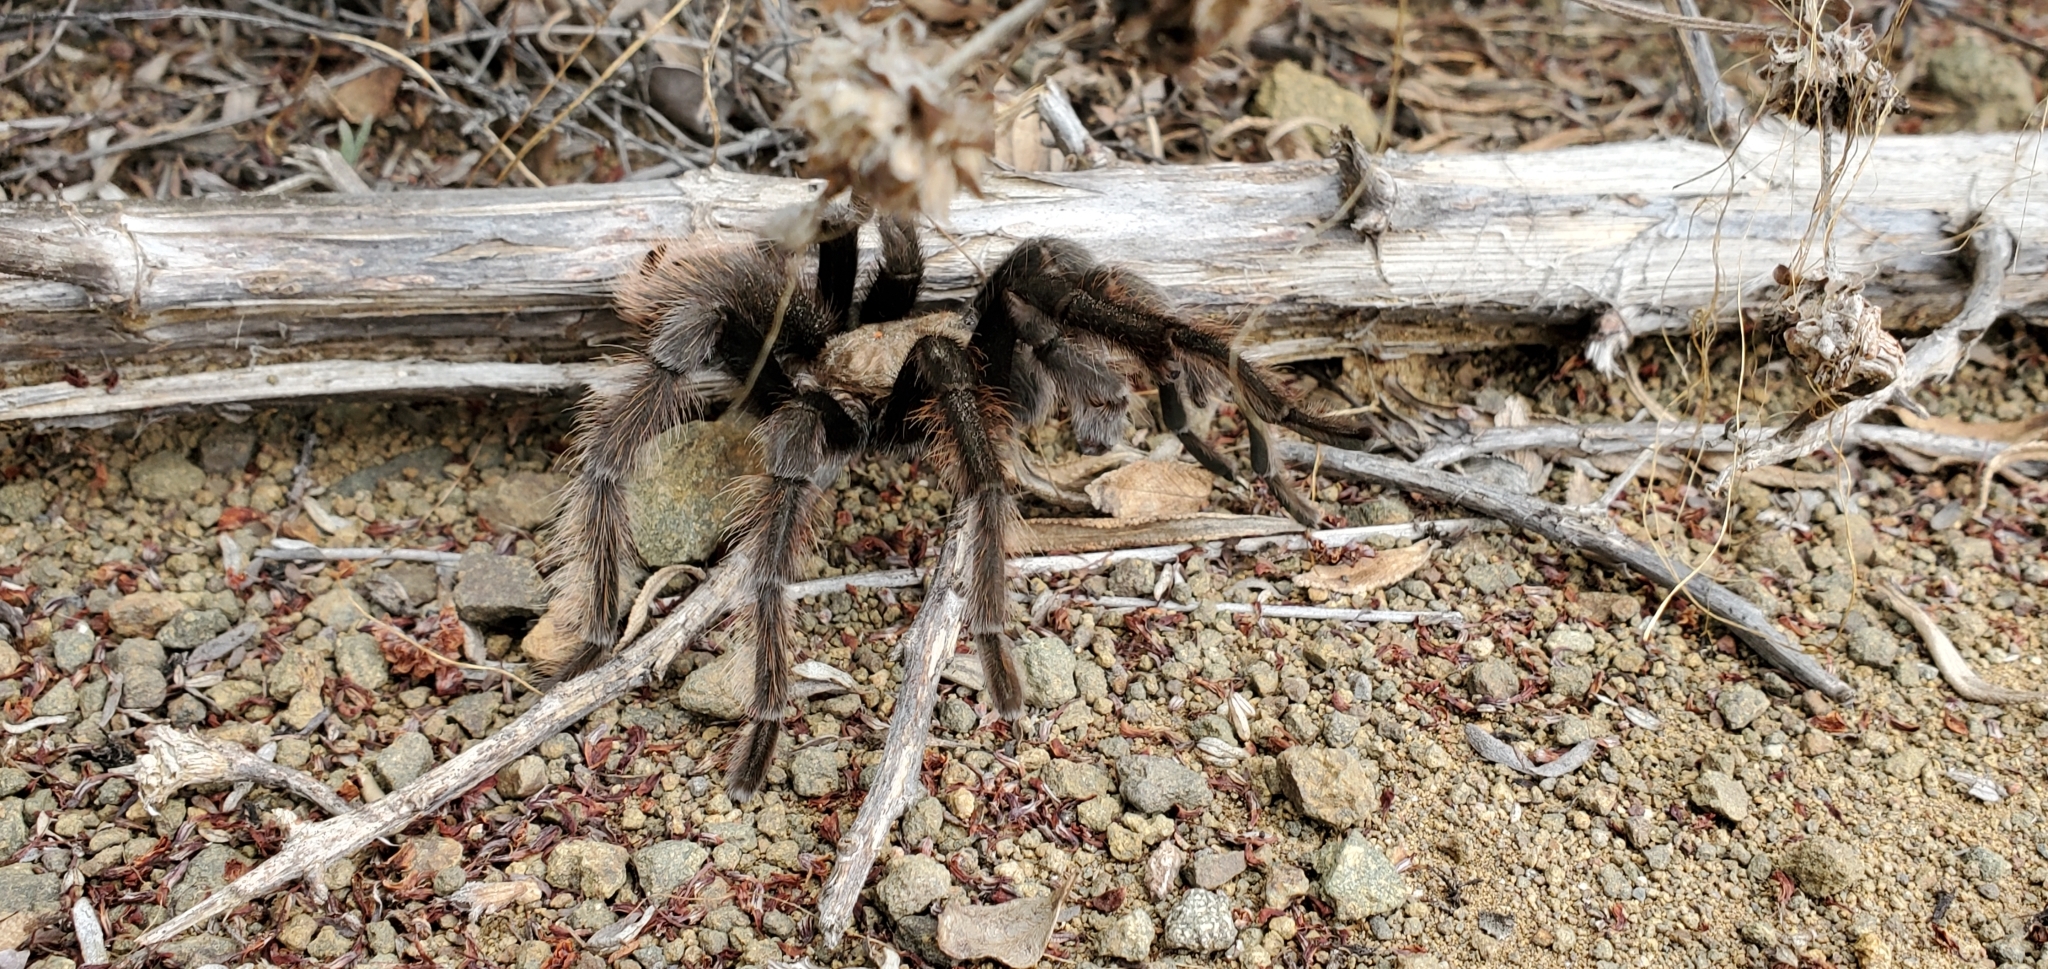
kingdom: Animalia
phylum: Arthropoda
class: Arachnida
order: Araneae
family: Theraphosidae
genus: Aphonopelma
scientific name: Aphonopelma eutylenum
